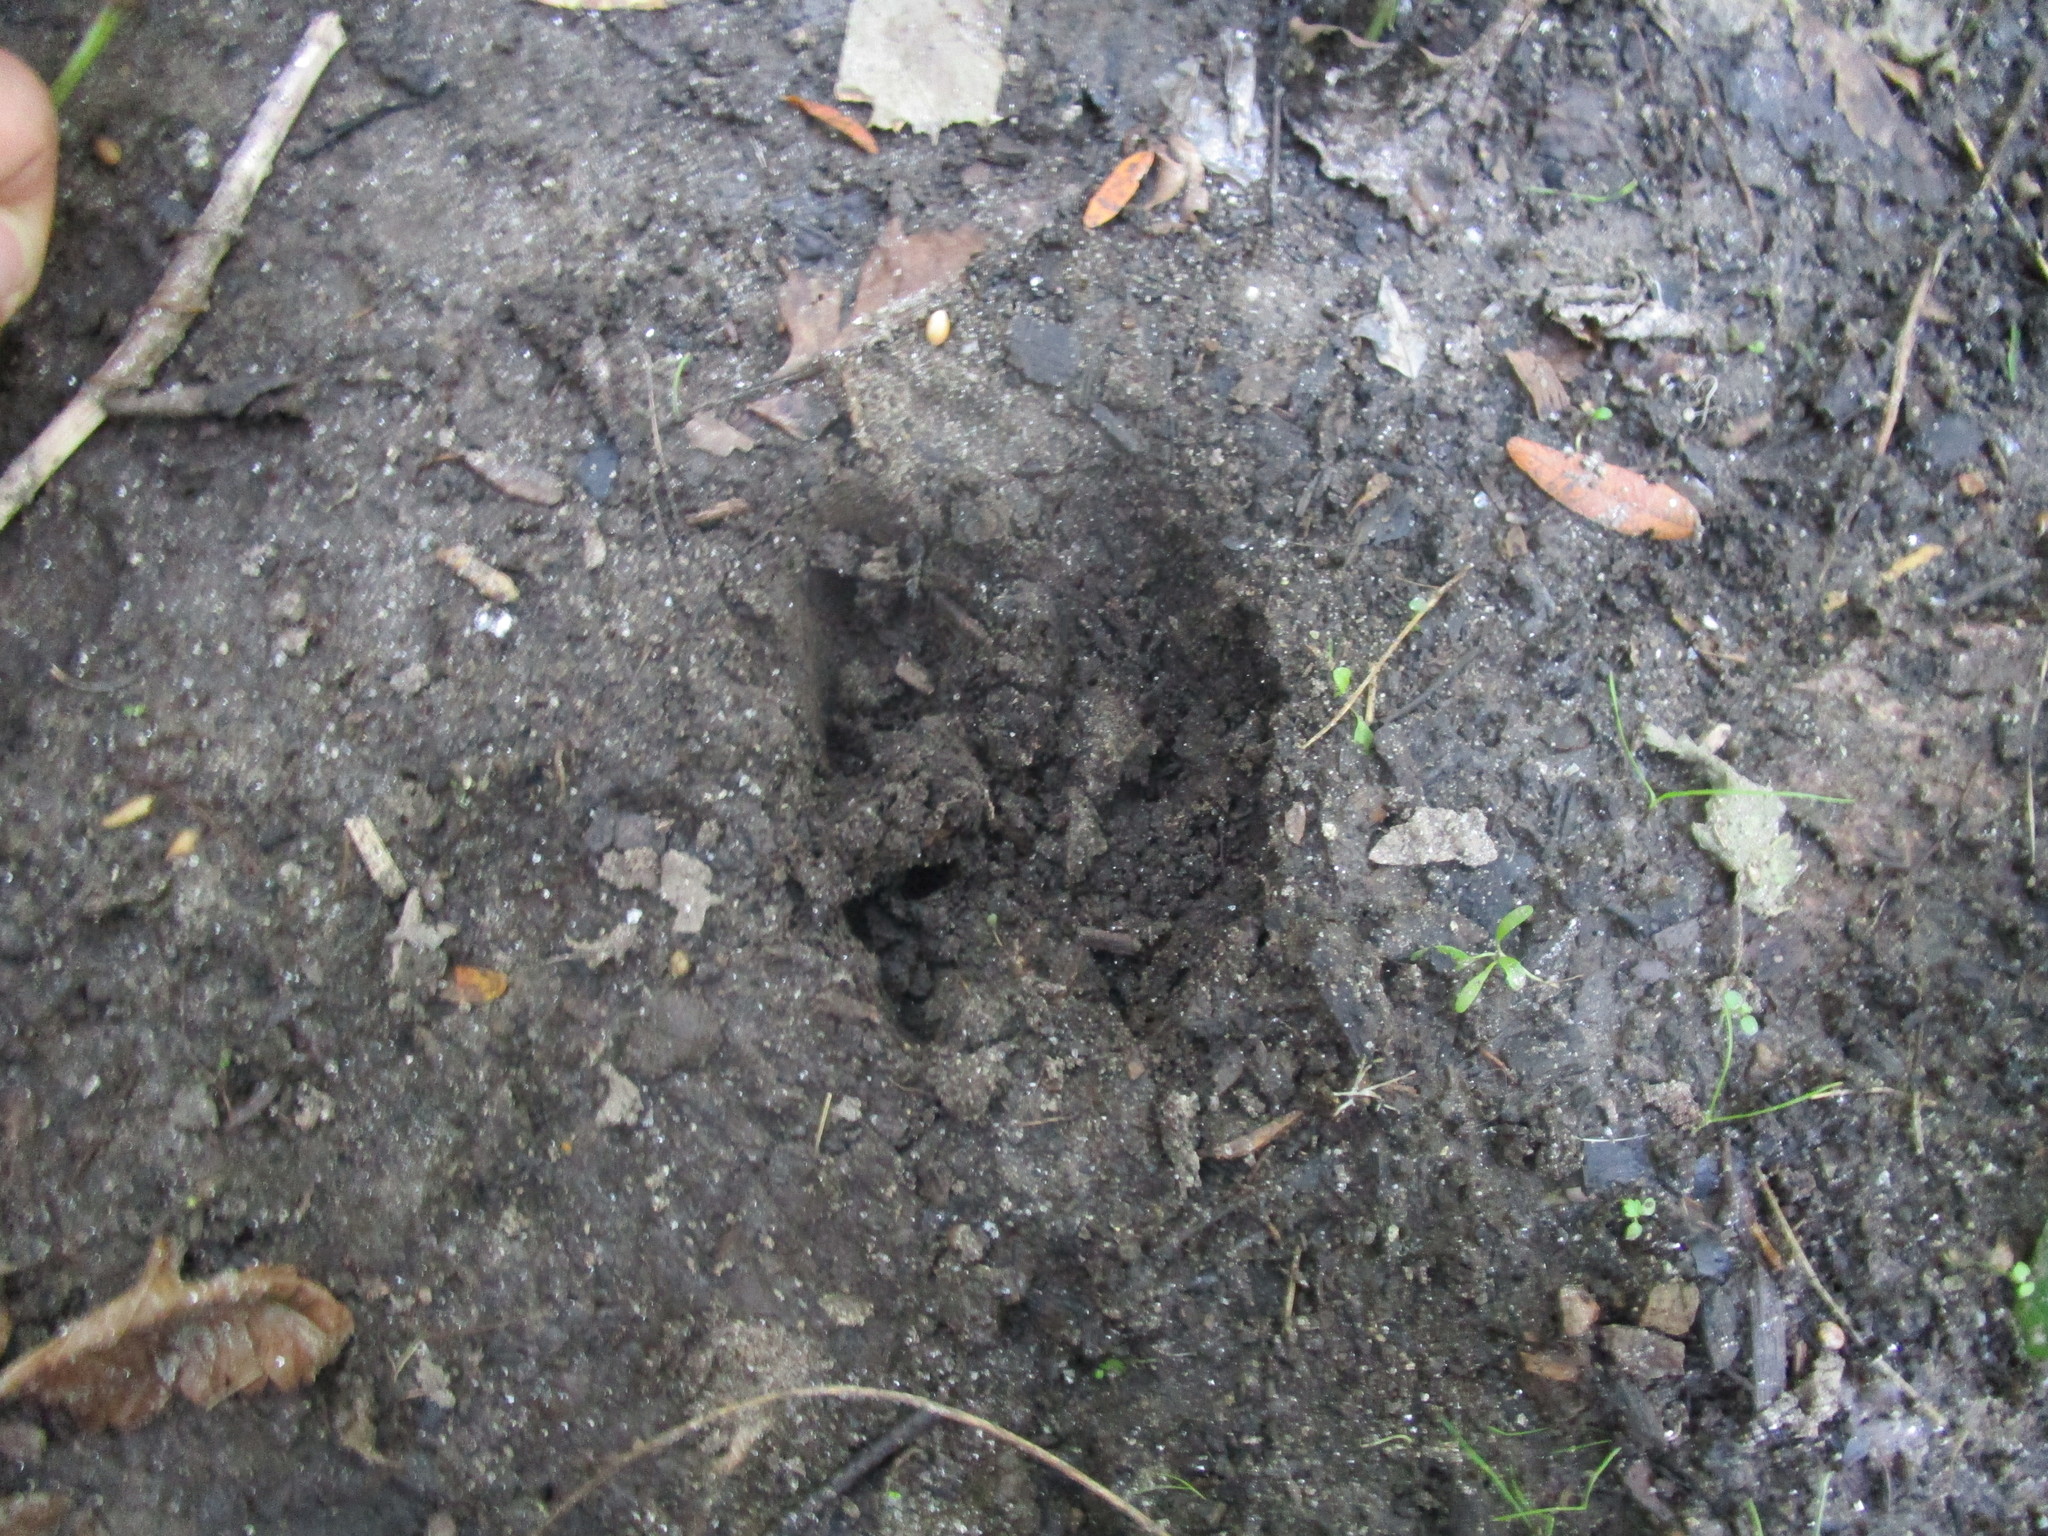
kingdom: Animalia
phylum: Chordata
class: Mammalia
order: Artiodactyla
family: Cervidae
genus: Odocoileus
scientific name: Odocoileus virginianus
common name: White-tailed deer
